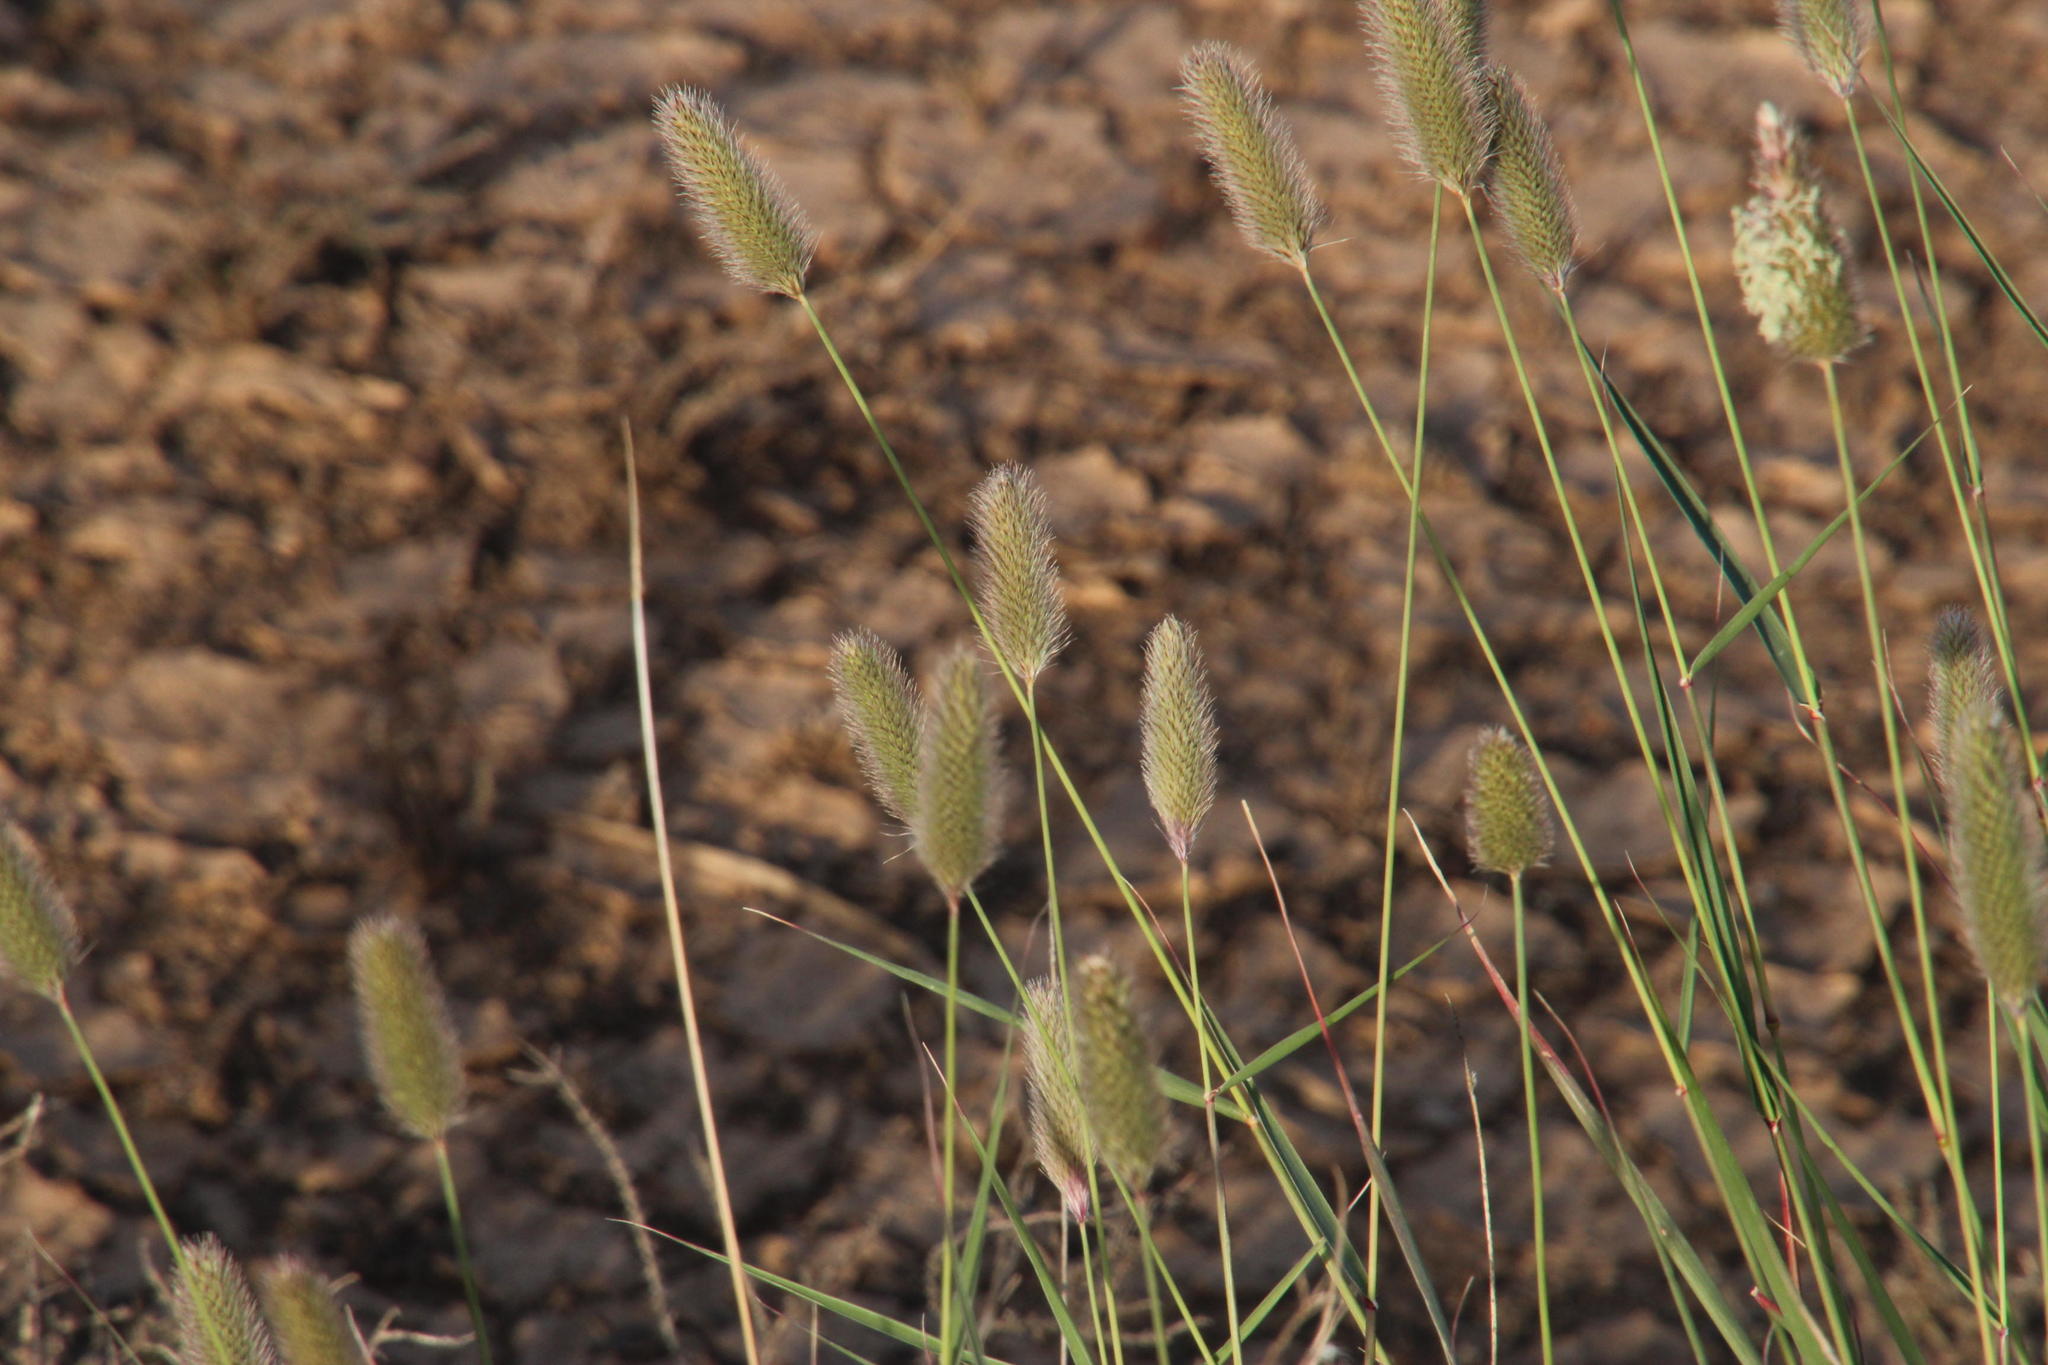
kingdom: Plantae
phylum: Tracheophyta
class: Liliopsida
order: Poales
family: Poaceae
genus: Fingerhuthia
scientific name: Fingerhuthia africana
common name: Zulu fescue
